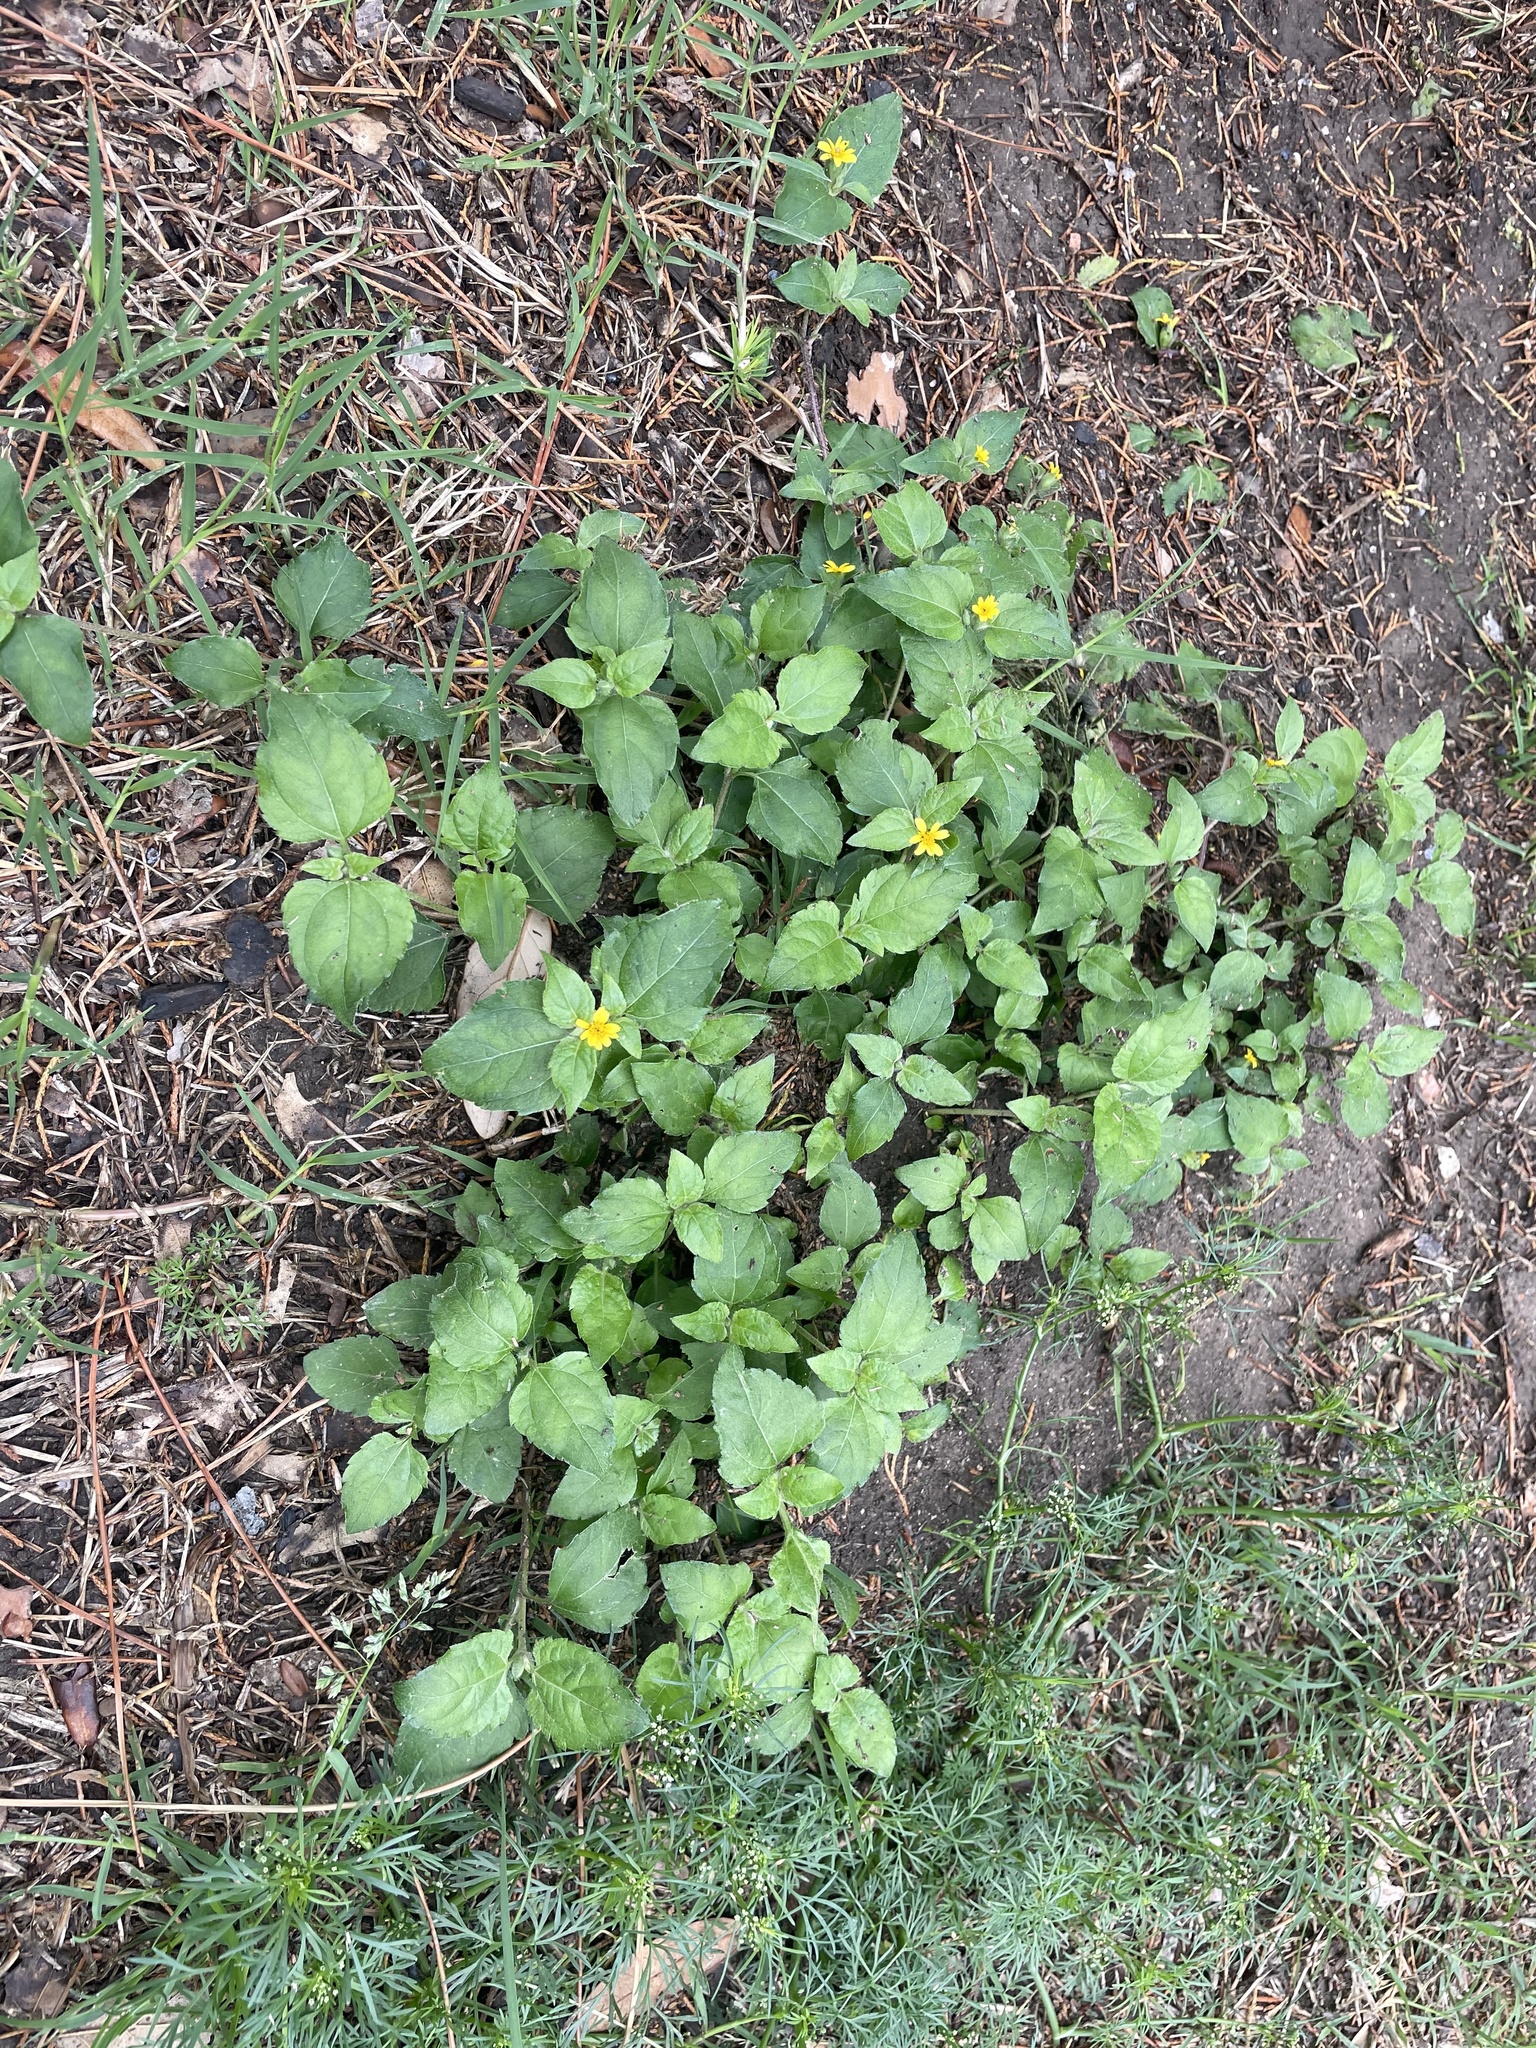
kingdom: Plantae
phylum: Tracheophyta
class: Magnoliopsida
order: Asterales
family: Asteraceae
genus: Calyptocarpus
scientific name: Calyptocarpus vialis
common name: Straggler daisy
